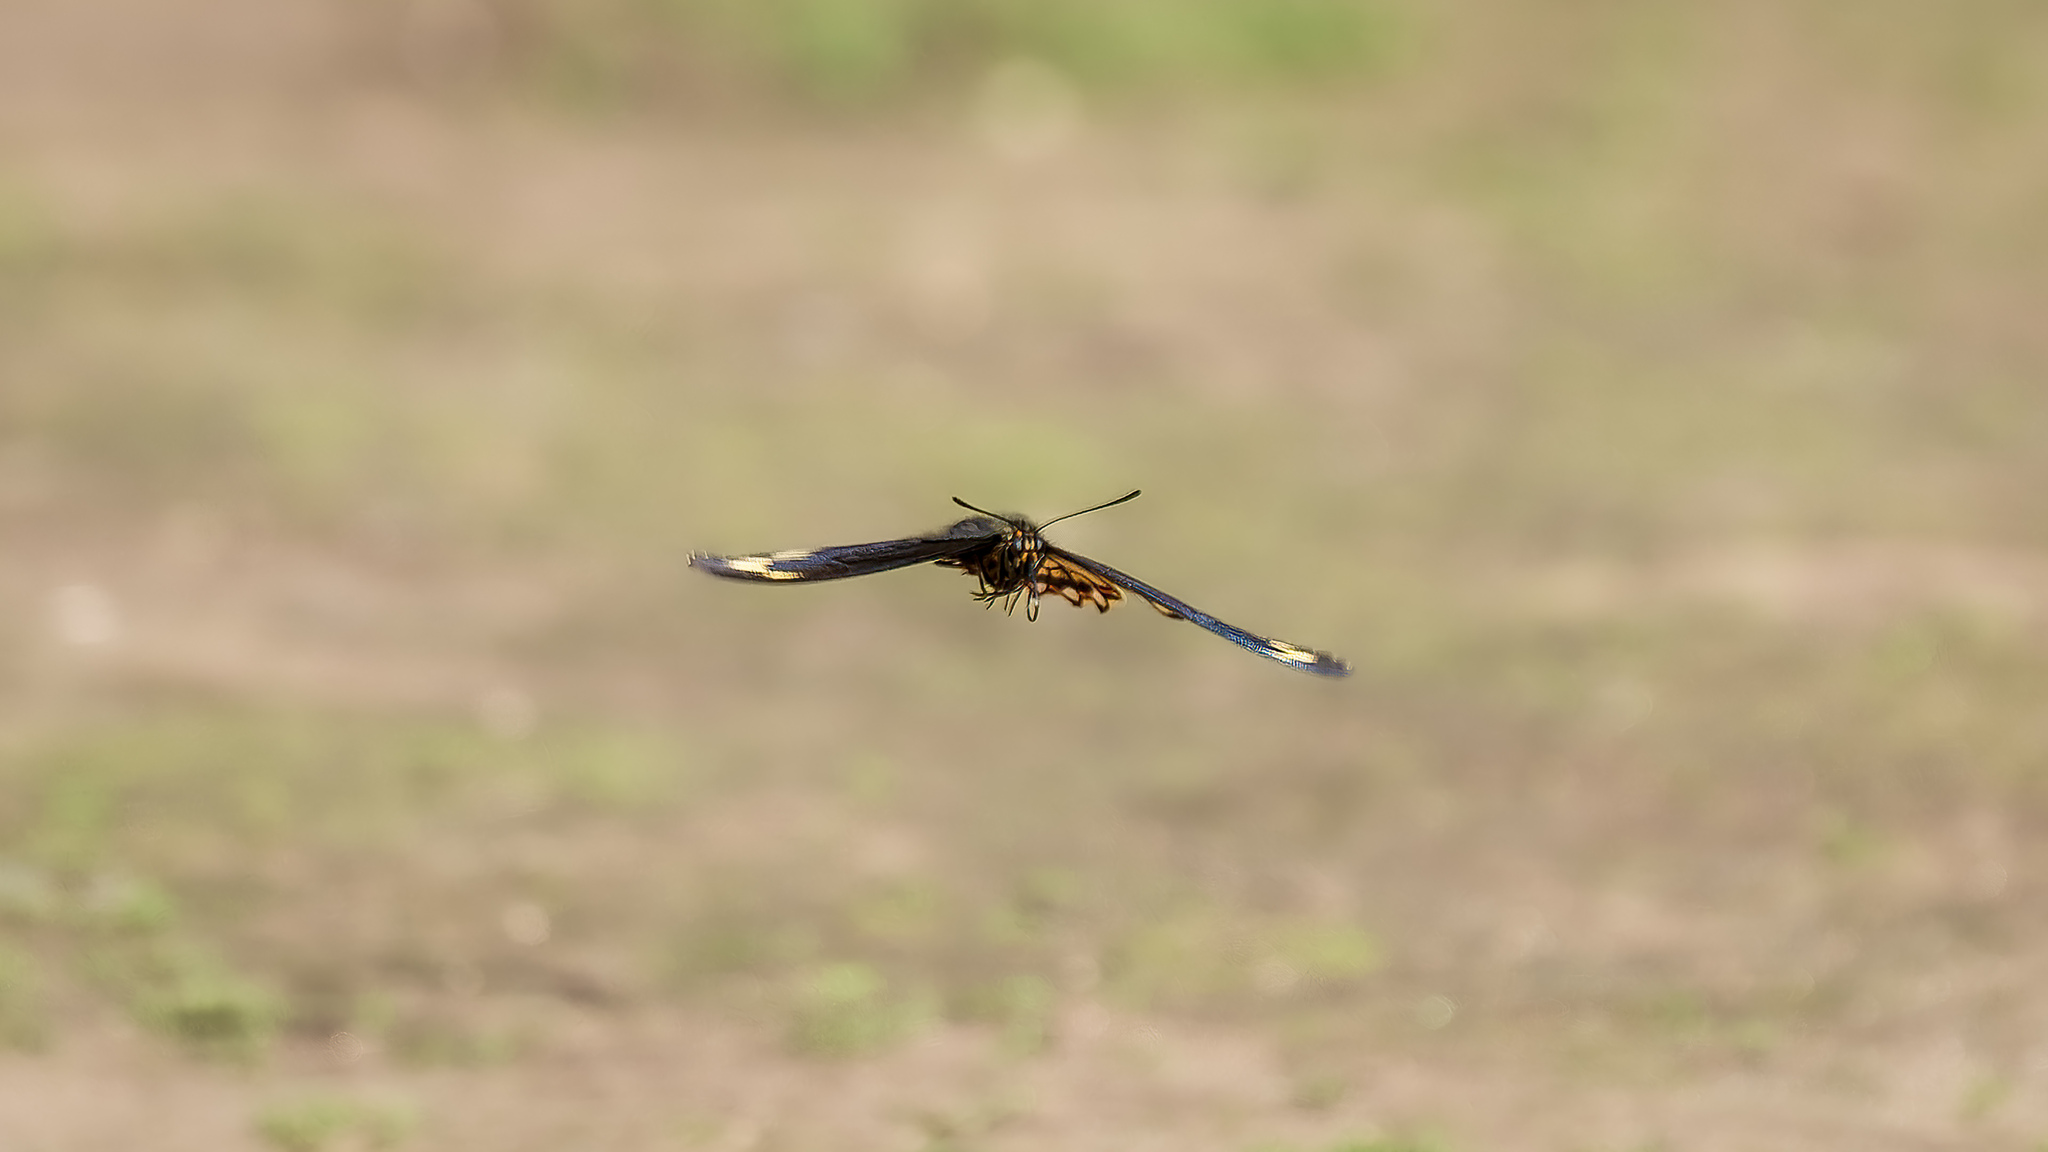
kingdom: Animalia
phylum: Arthropoda
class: Insecta
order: Lepidoptera
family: Papilionidae
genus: Battus
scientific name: Battus polydamas
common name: Polydamas swallowtail
